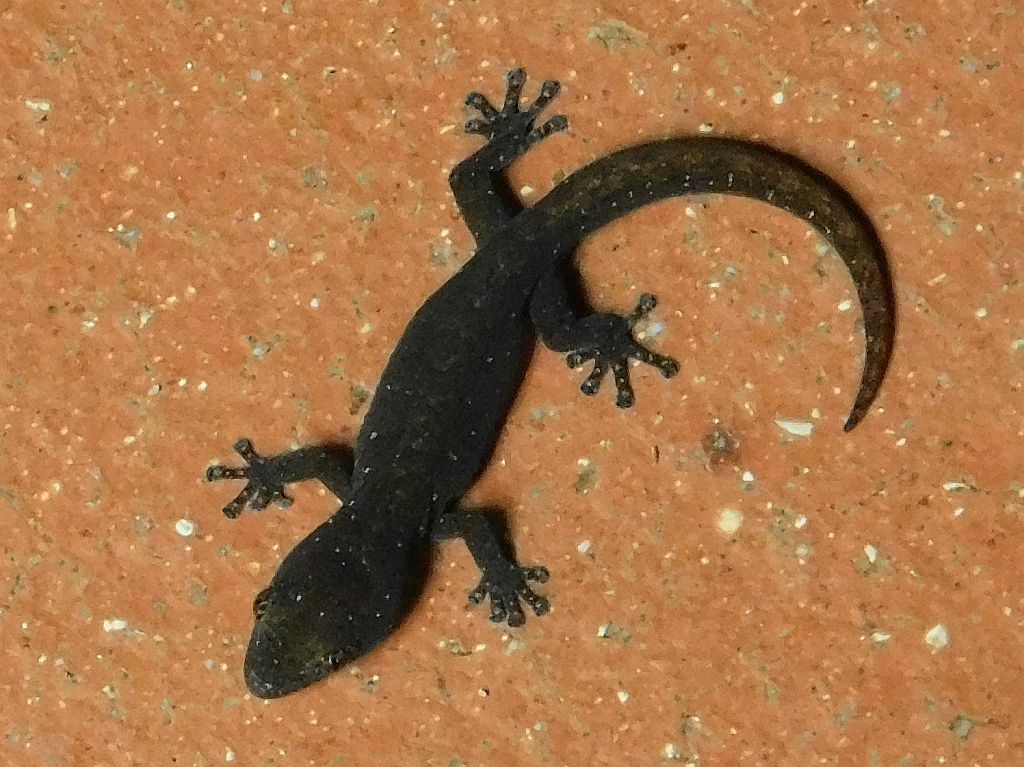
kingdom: Animalia
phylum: Chordata
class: Squamata
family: Gekkonidae
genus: Afrogecko
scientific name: Afrogecko porphyreus
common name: Marbled leaf-toed gecko
